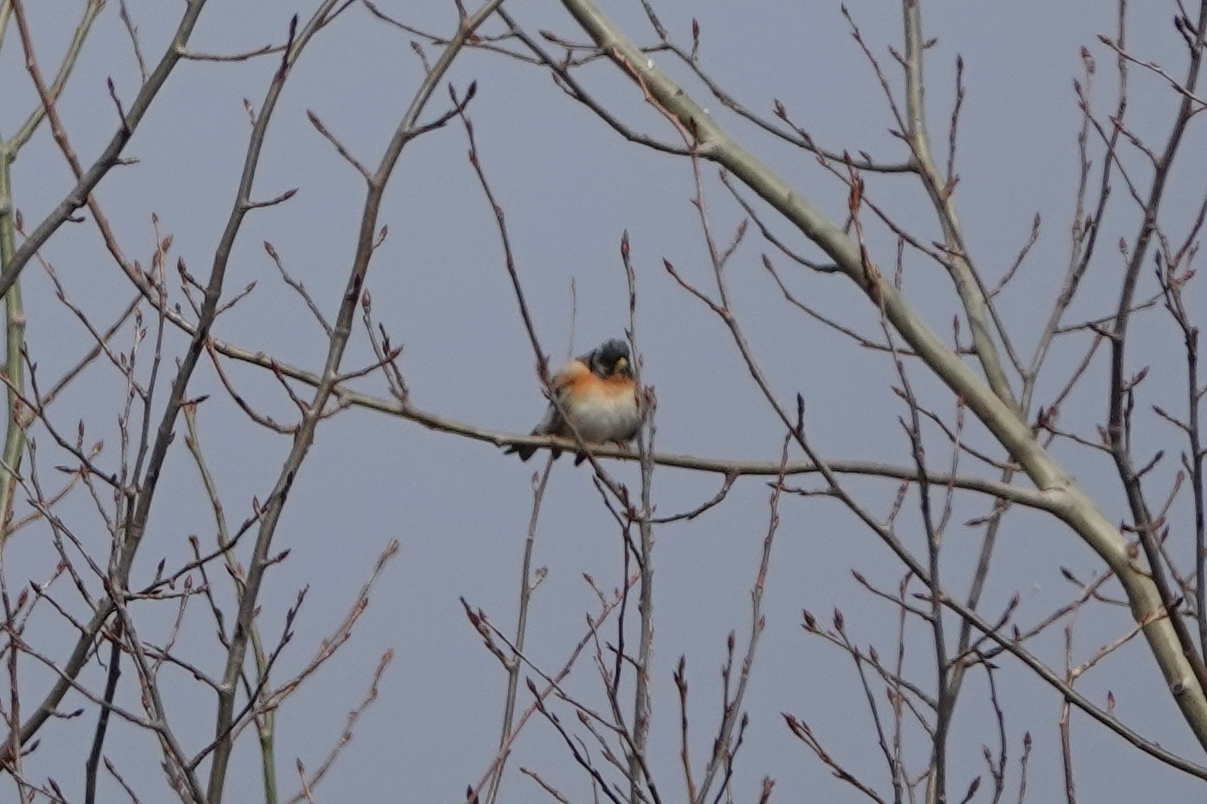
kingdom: Animalia
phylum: Chordata
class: Aves
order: Passeriformes
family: Fringillidae
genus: Fringilla
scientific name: Fringilla montifringilla
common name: Brambling
